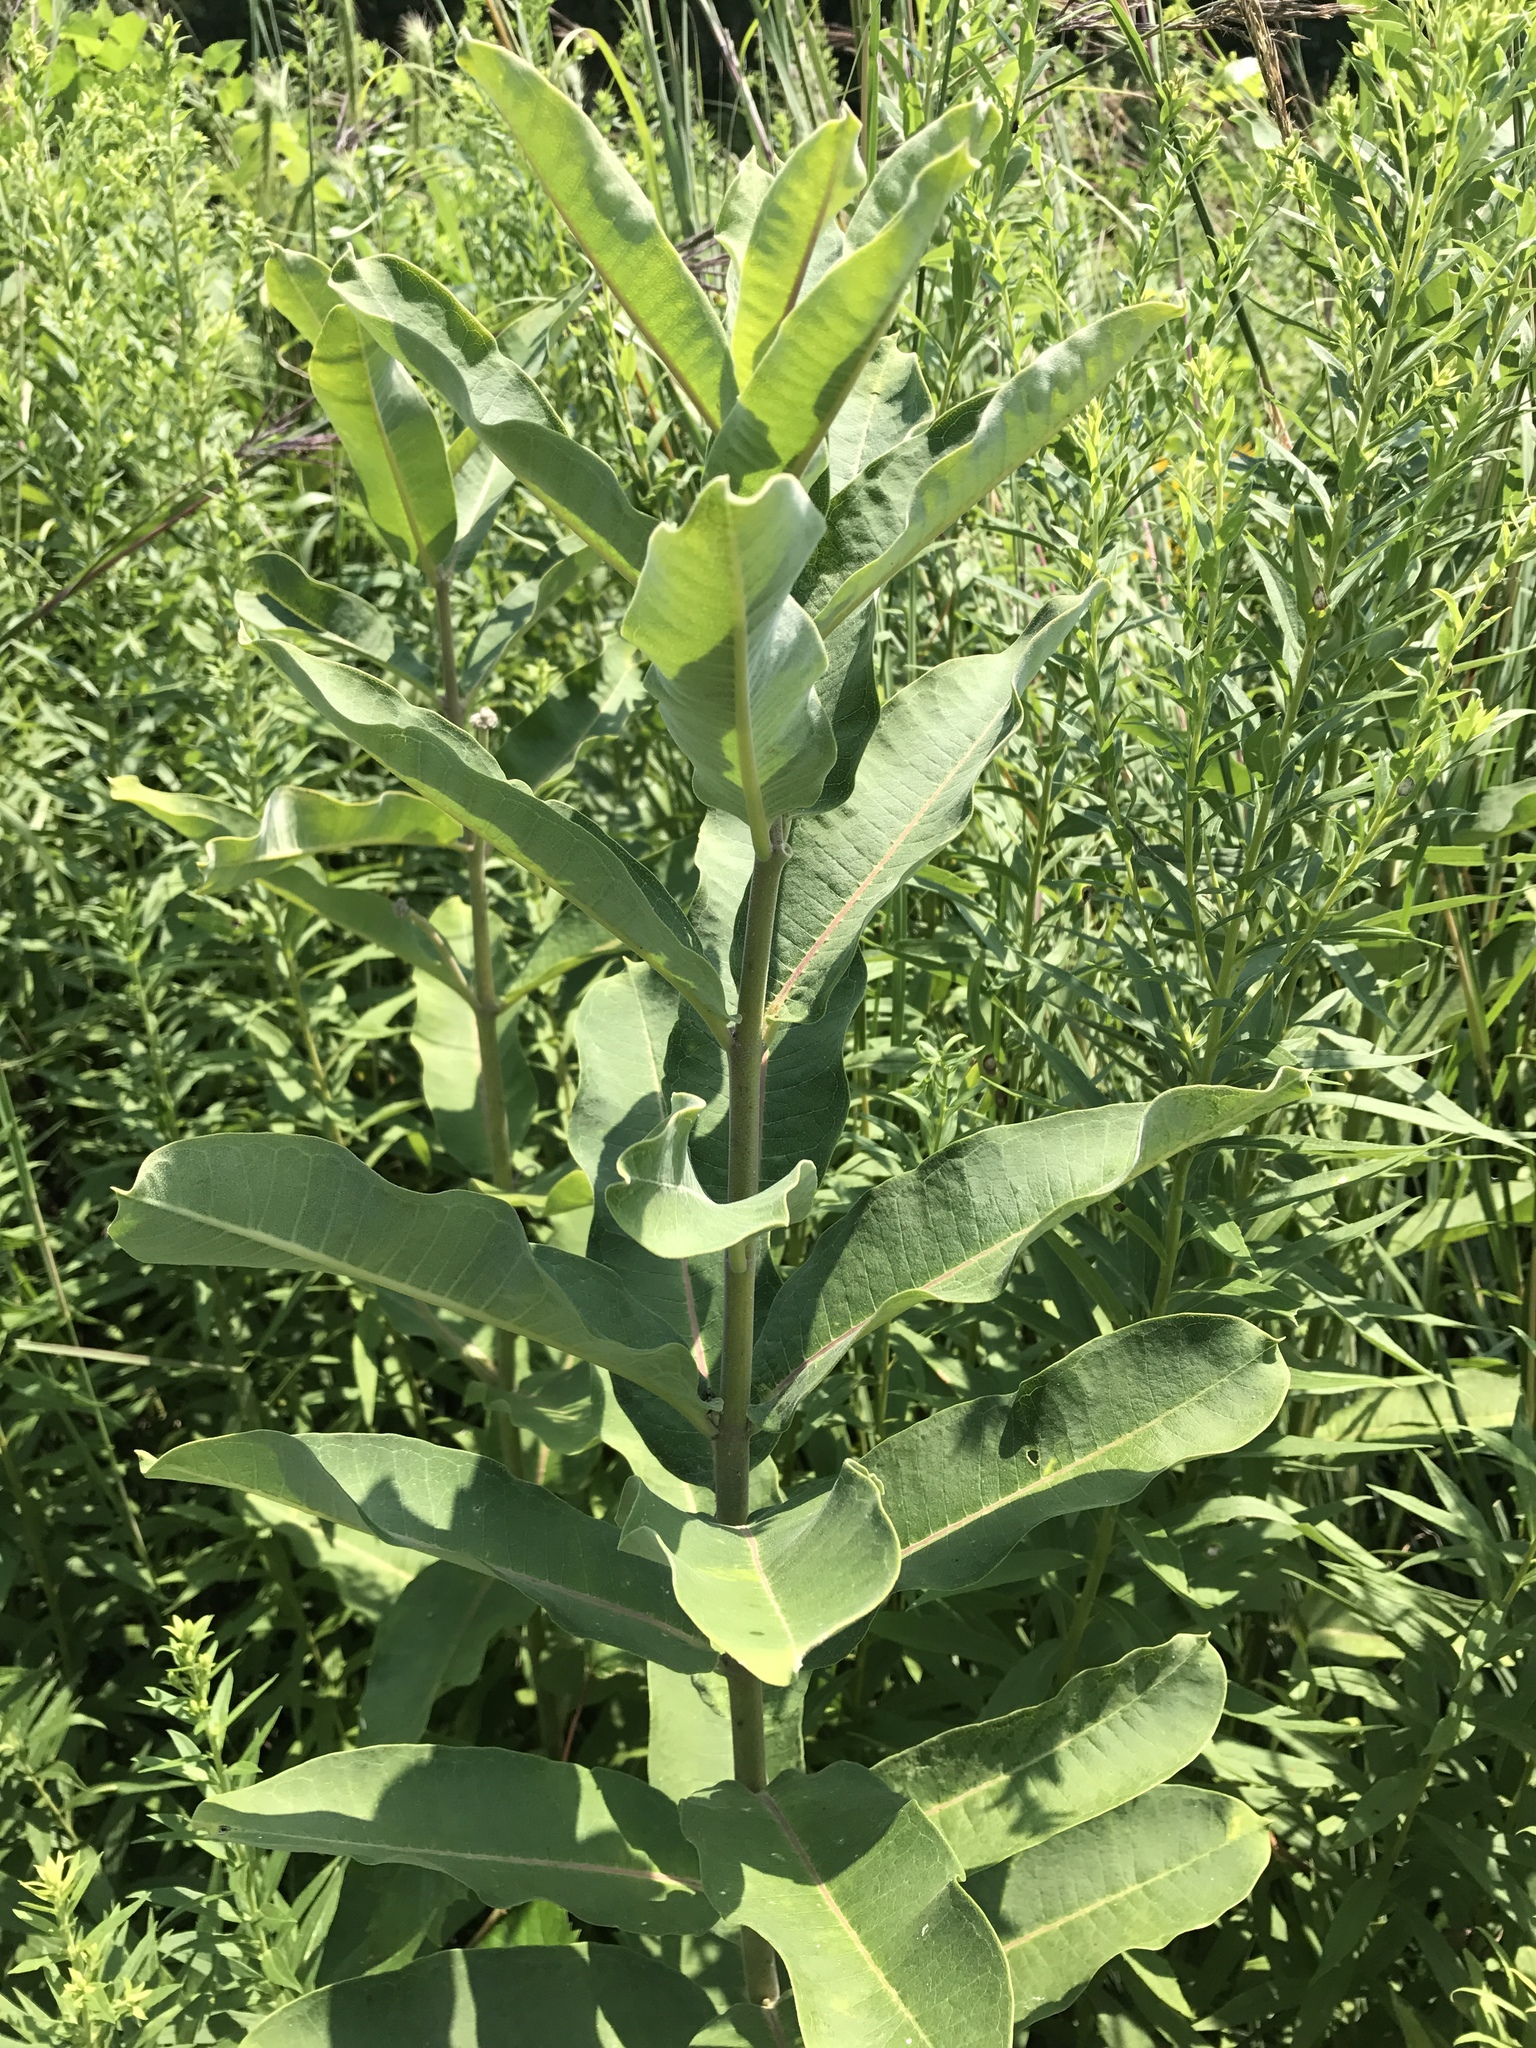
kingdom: Plantae
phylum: Tracheophyta
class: Magnoliopsida
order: Gentianales
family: Apocynaceae
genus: Asclepias
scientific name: Asclepias syriaca
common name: Common milkweed
